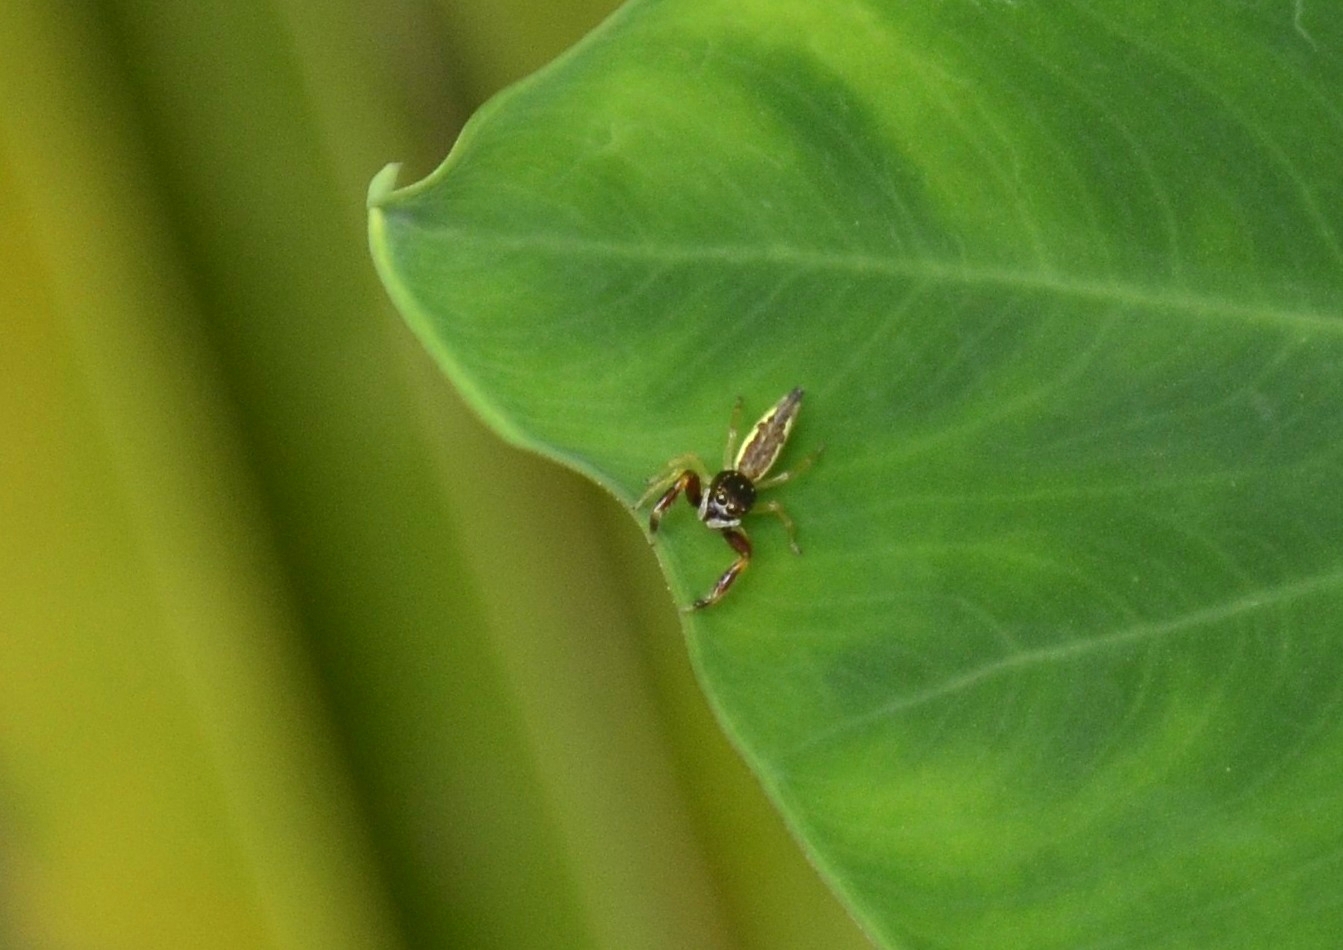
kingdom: Animalia
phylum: Arthropoda
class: Arachnida
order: Araneae
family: Salticidae
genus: Indopadilla
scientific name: Indopadilla insularis
